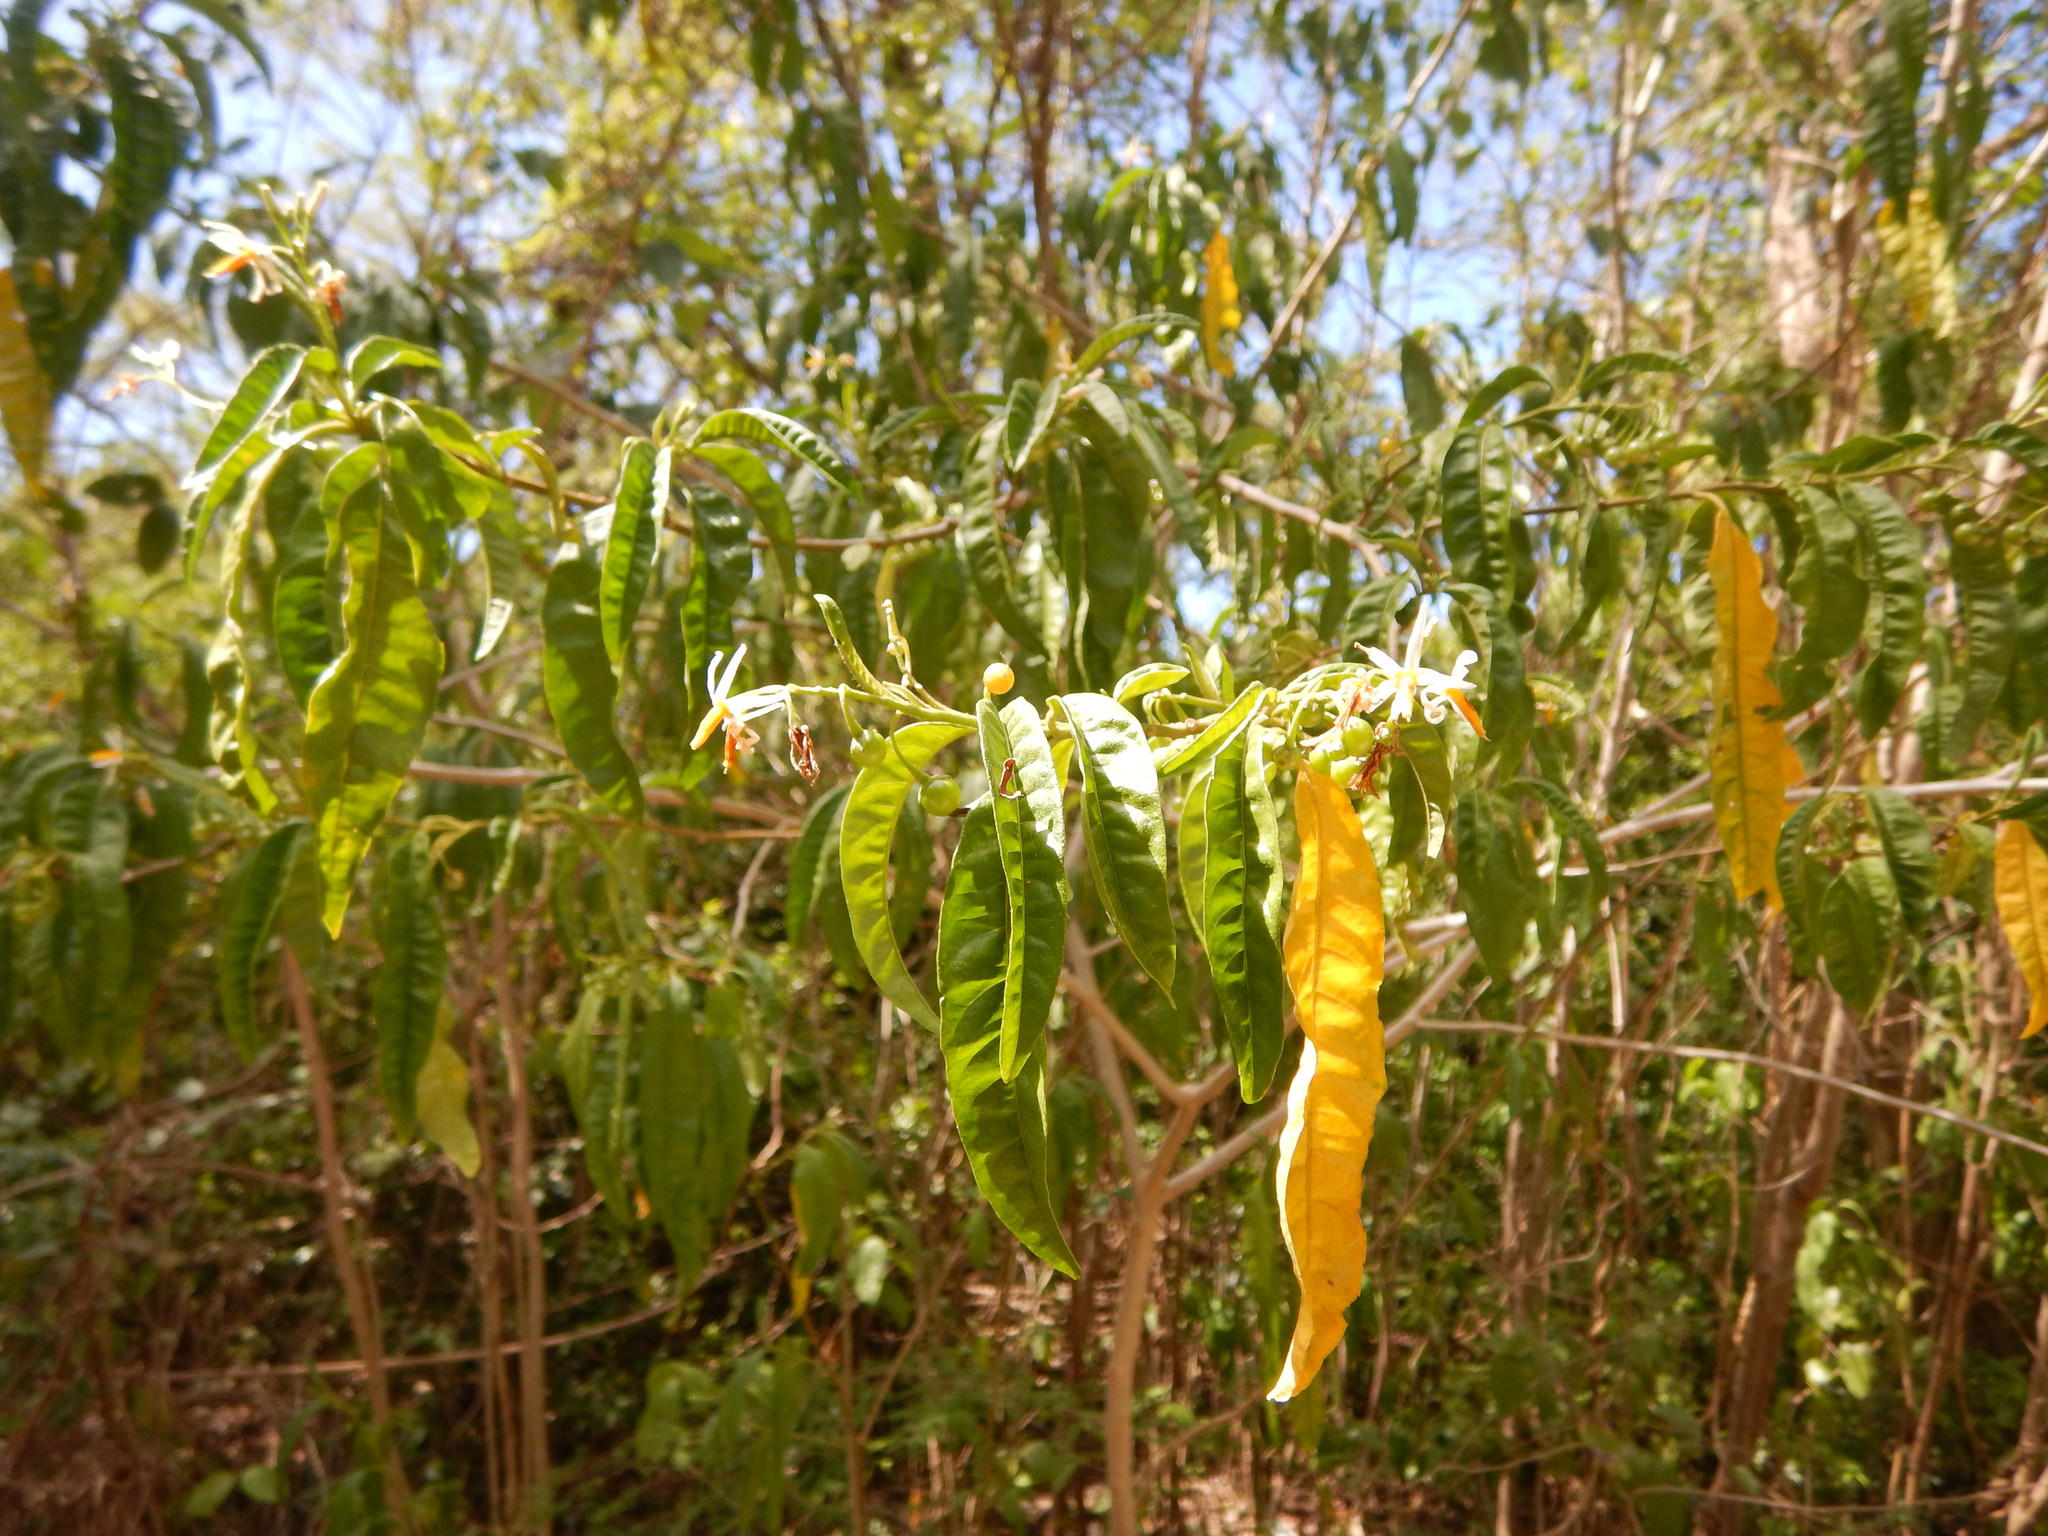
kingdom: Plantae
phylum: Tracheophyta
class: Magnoliopsida
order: Solanales
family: Solanaceae
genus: Solanum
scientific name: Solanum bahamense
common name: Canker-berry
